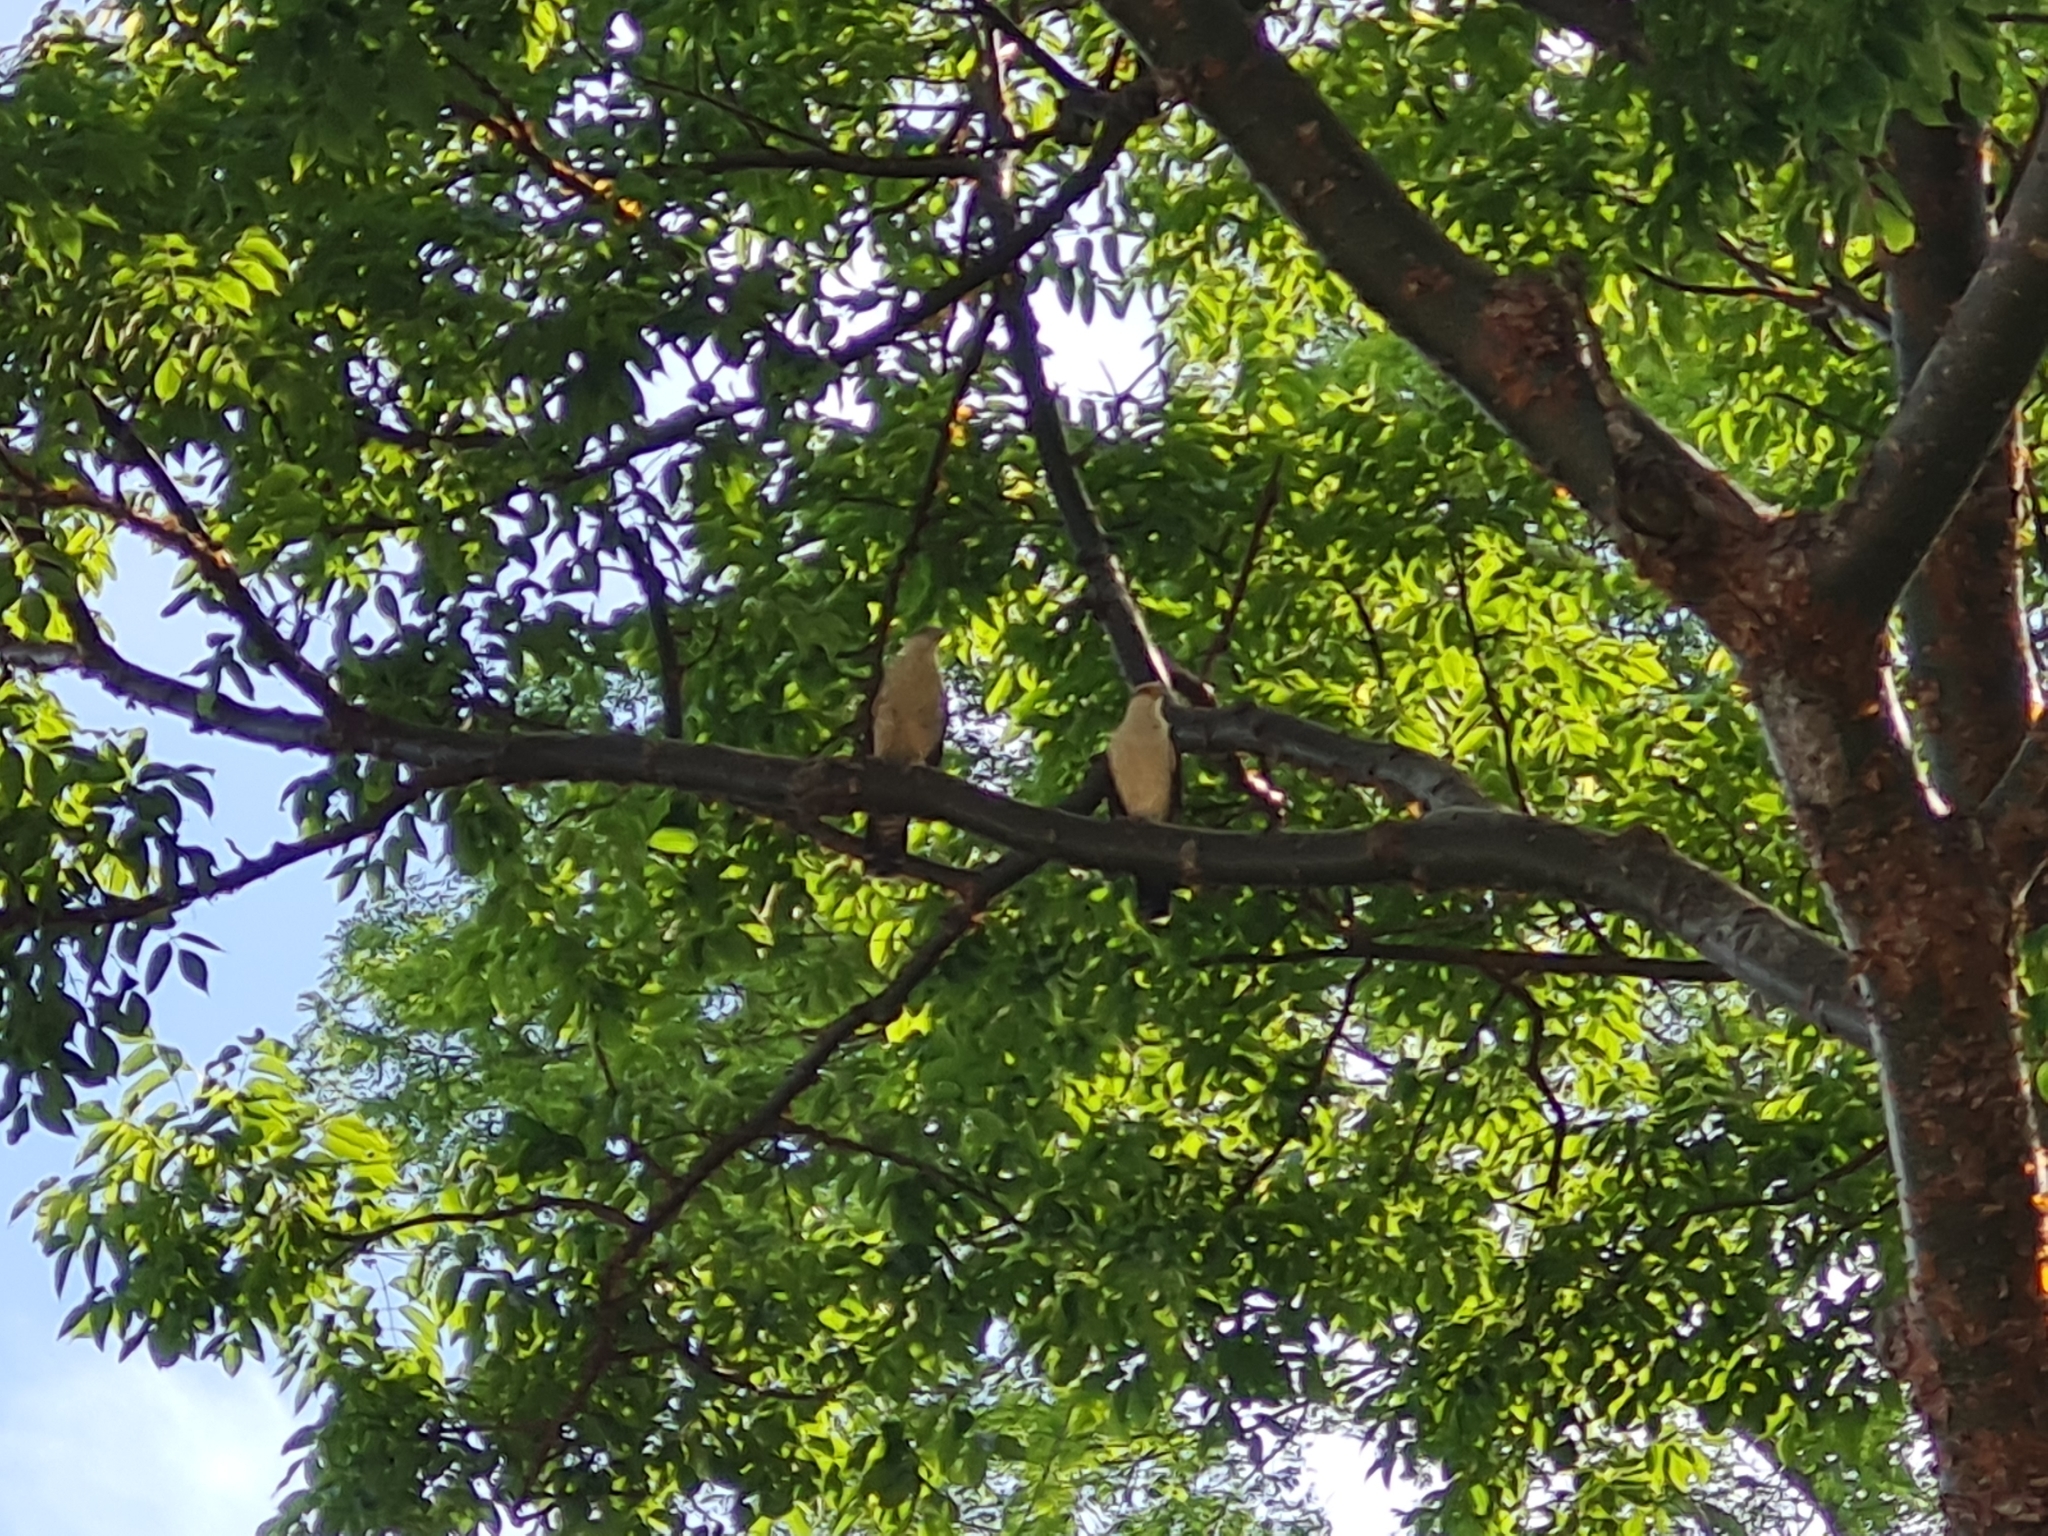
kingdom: Animalia
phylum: Chordata
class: Aves
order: Falconiformes
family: Falconidae
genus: Daptrius
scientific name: Daptrius
